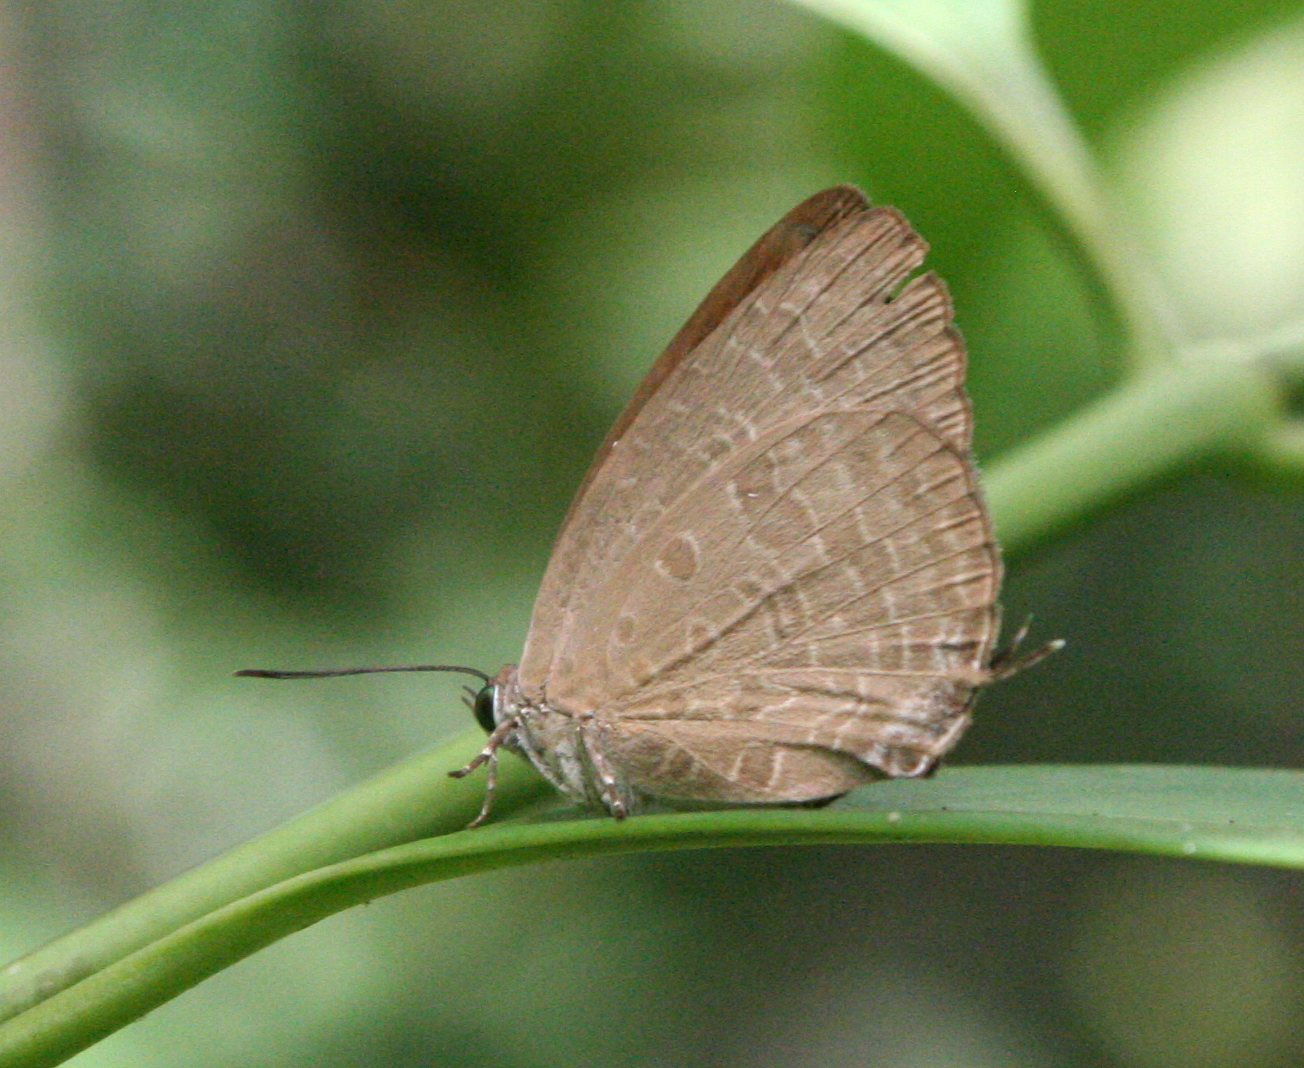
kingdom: Animalia
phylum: Arthropoda
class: Insecta
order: Lepidoptera
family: Lycaenidae
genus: Arhopala
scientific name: Arhopala elopura
